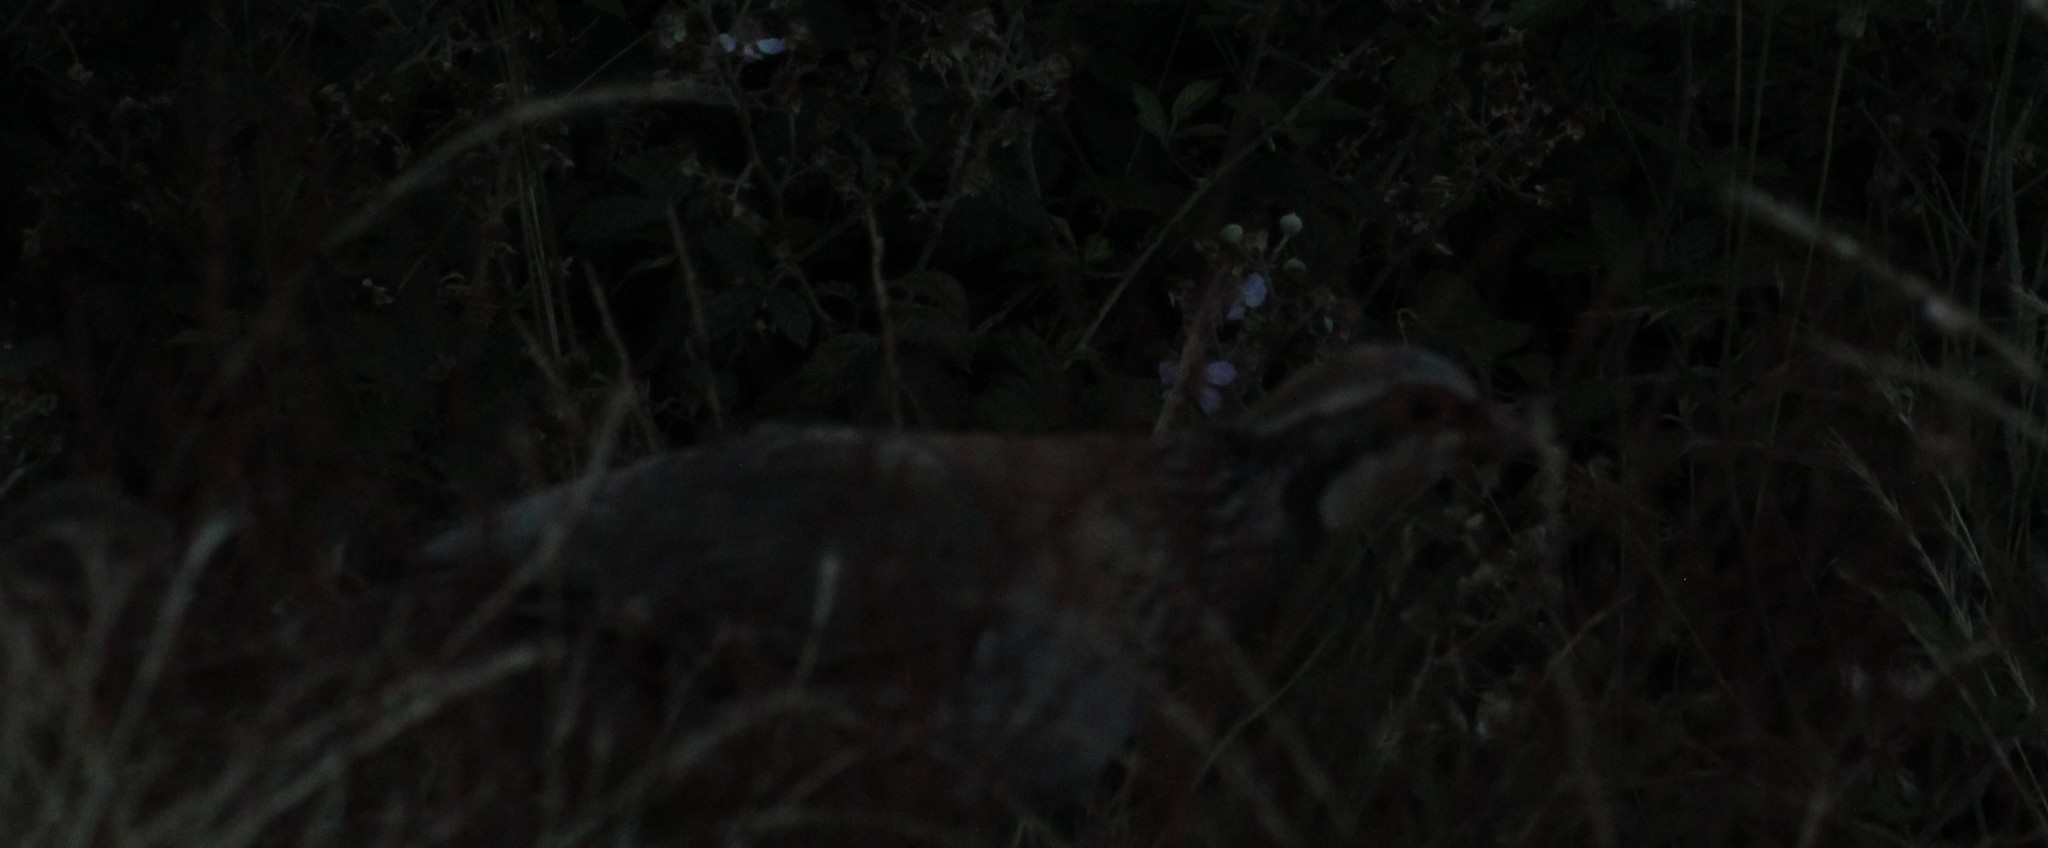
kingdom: Animalia
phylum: Chordata
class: Aves
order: Galliformes
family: Phasianidae
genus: Alectoris
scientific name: Alectoris rufa
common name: Red-legged partridge
